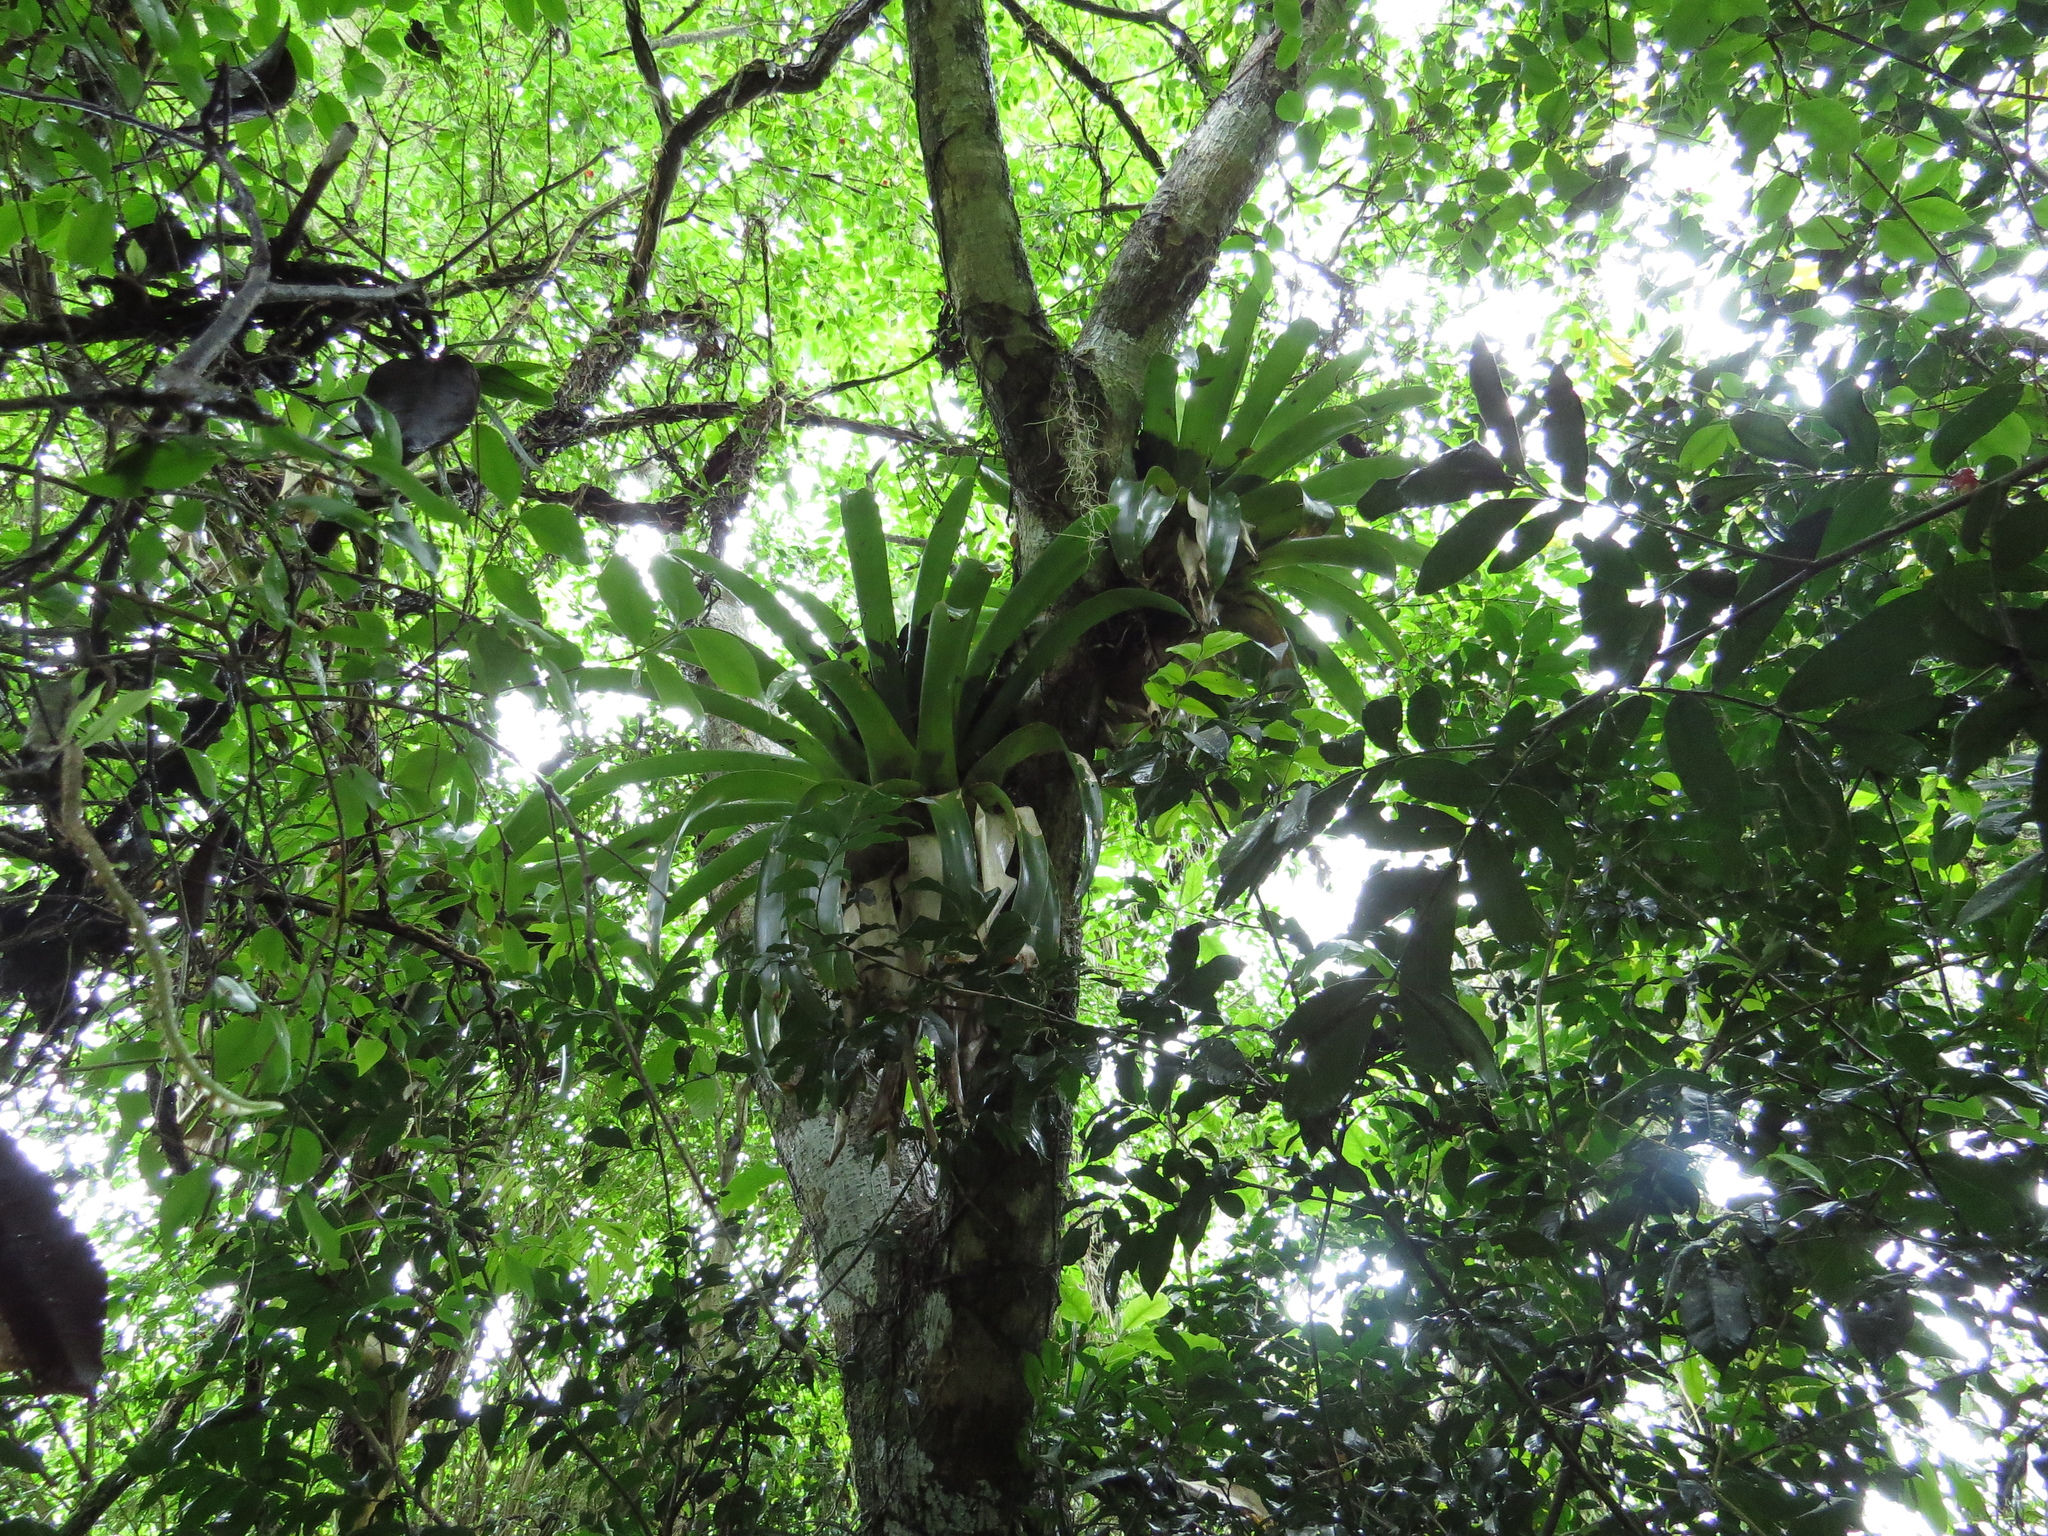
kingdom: Plantae
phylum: Tracheophyta
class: Liliopsida
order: Poales
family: Bromeliaceae
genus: Vriesea
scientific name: Vriesea friburgensis
